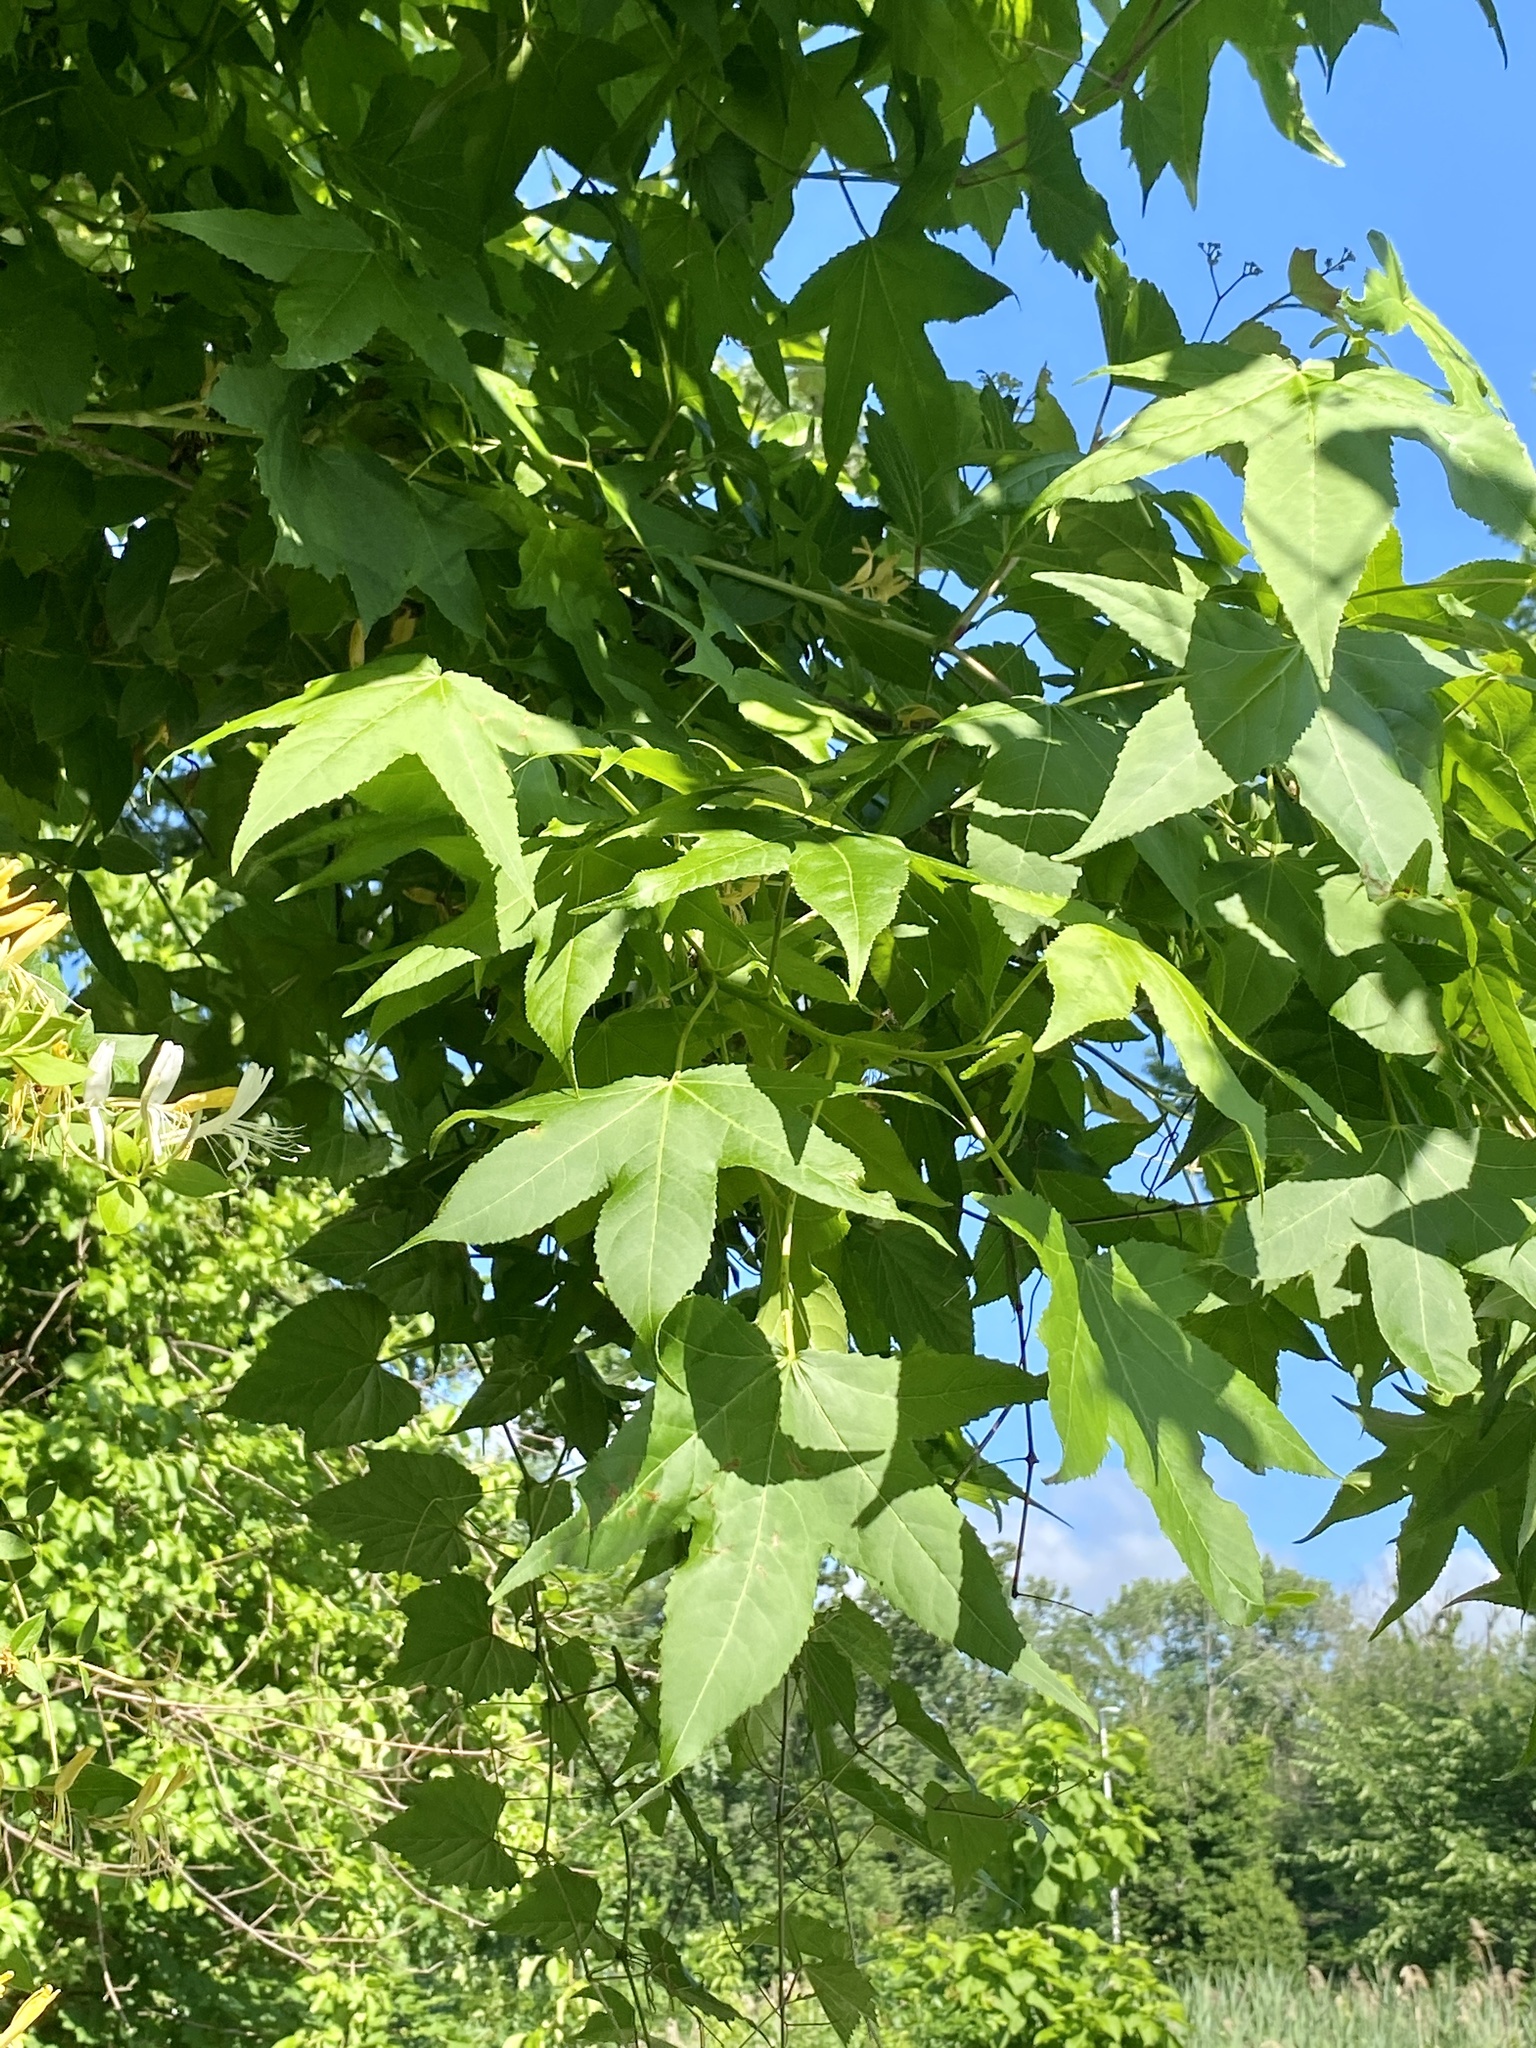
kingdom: Plantae
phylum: Tracheophyta
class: Magnoliopsida
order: Saxifragales
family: Altingiaceae
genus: Liquidambar
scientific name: Liquidambar styraciflua
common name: Sweet gum
